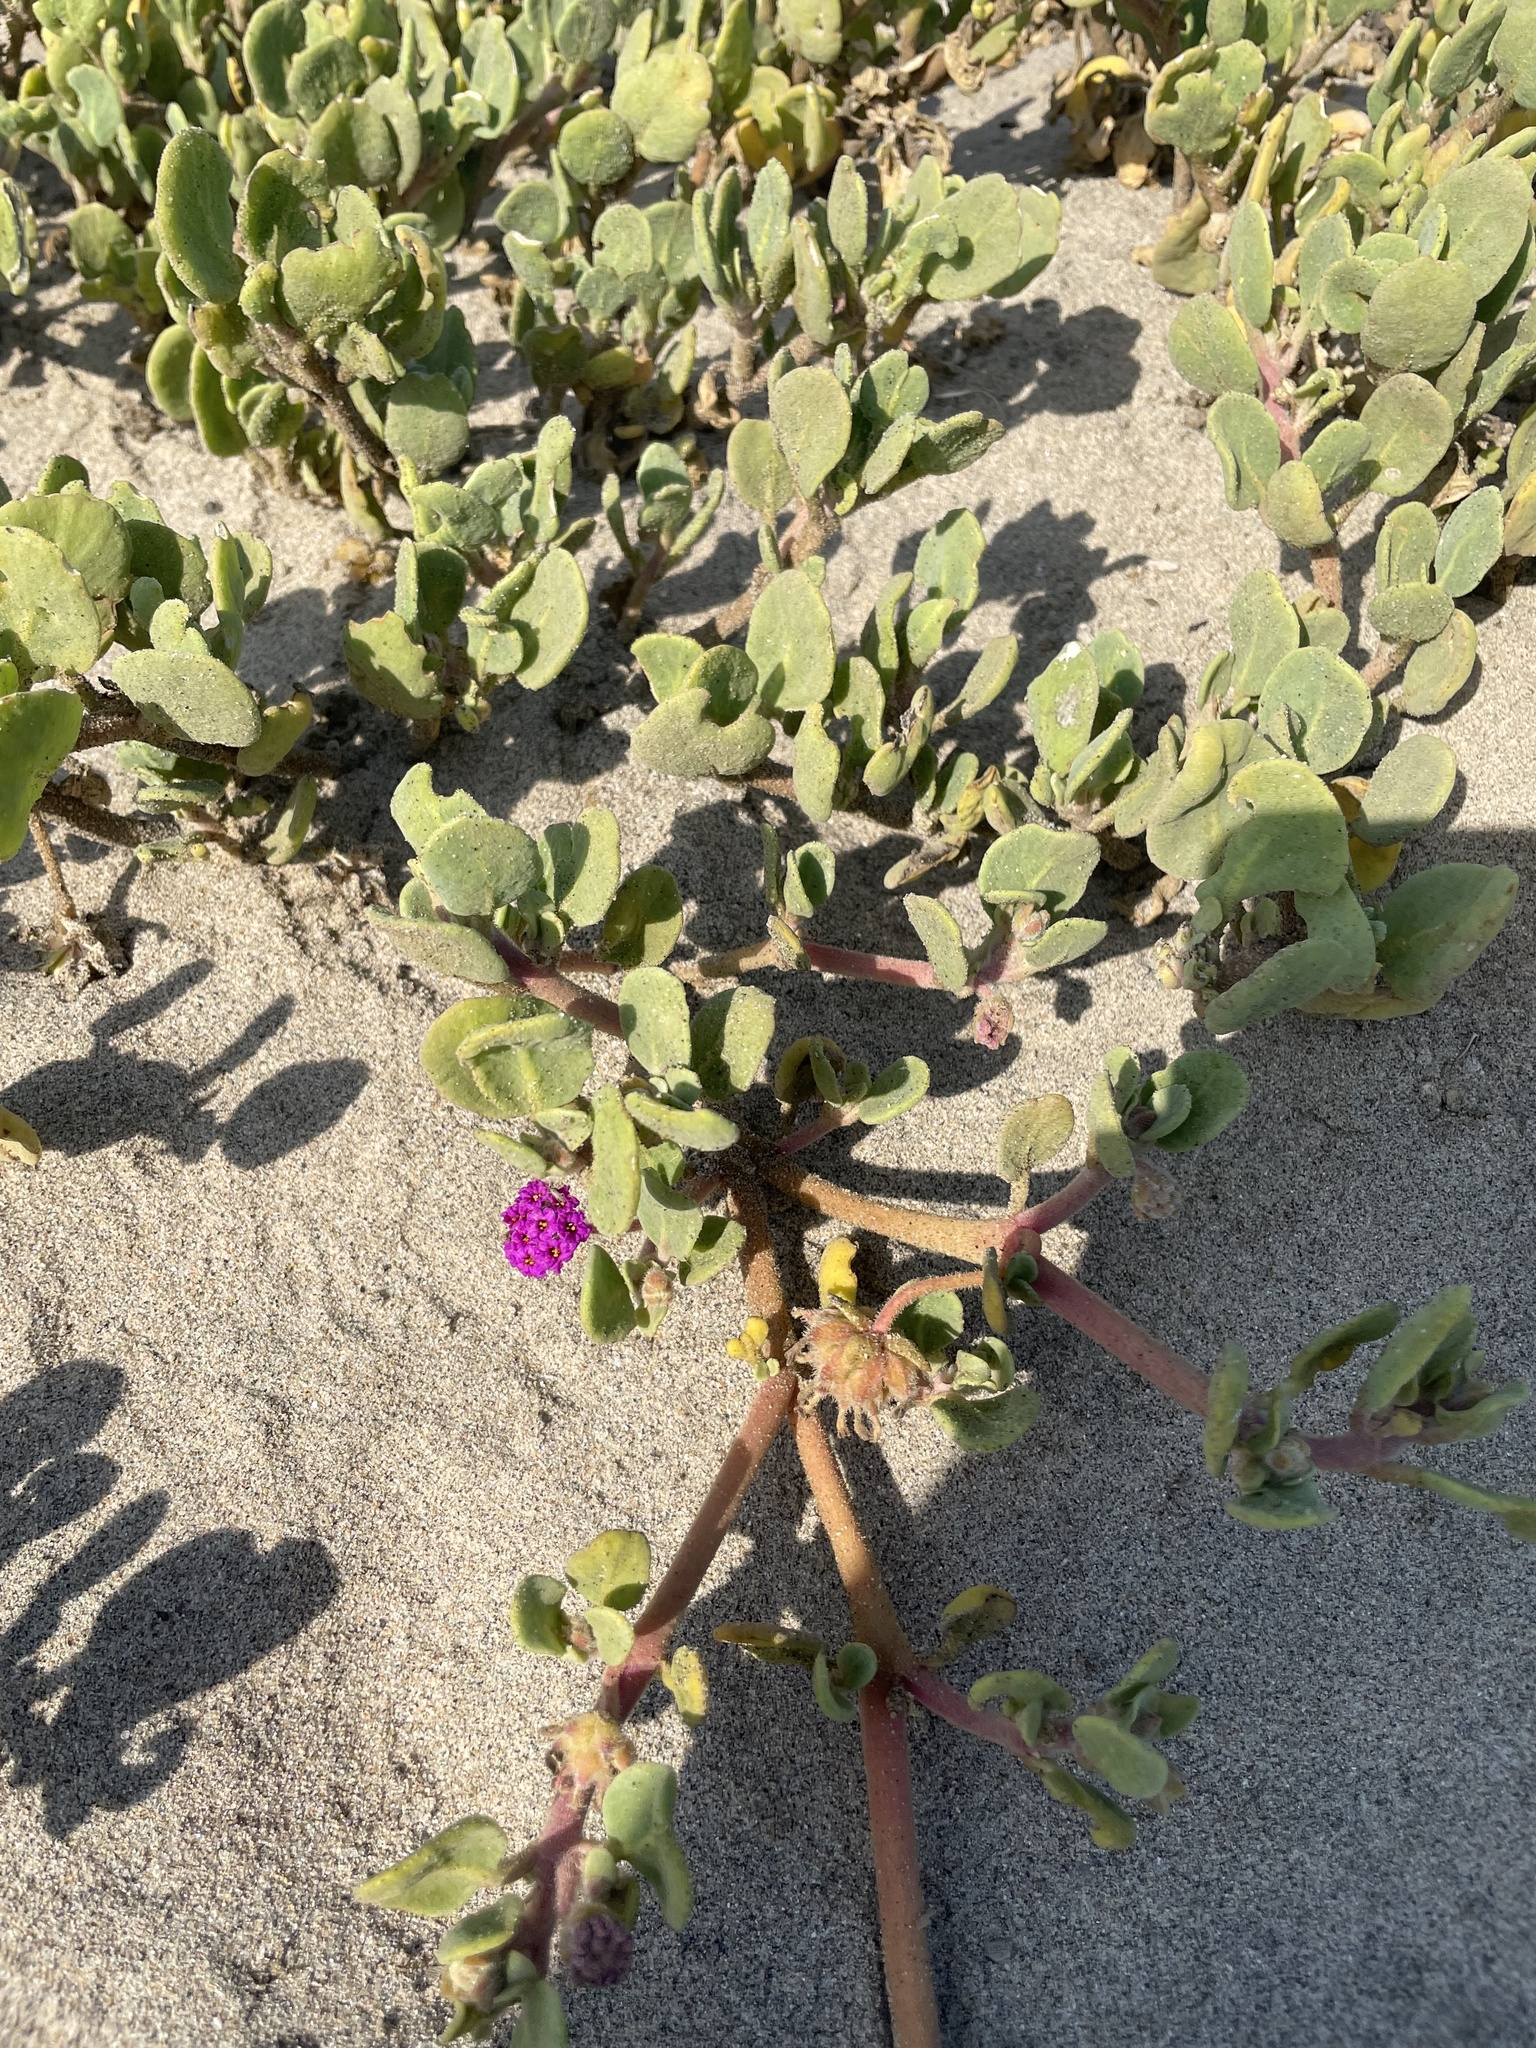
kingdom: Plantae
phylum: Tracheophyta
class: Magnoliopsida
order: Caryophyllales
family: Nyctaginaceae
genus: Abronia
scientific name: Abronia maritima
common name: Red sand-verbena
